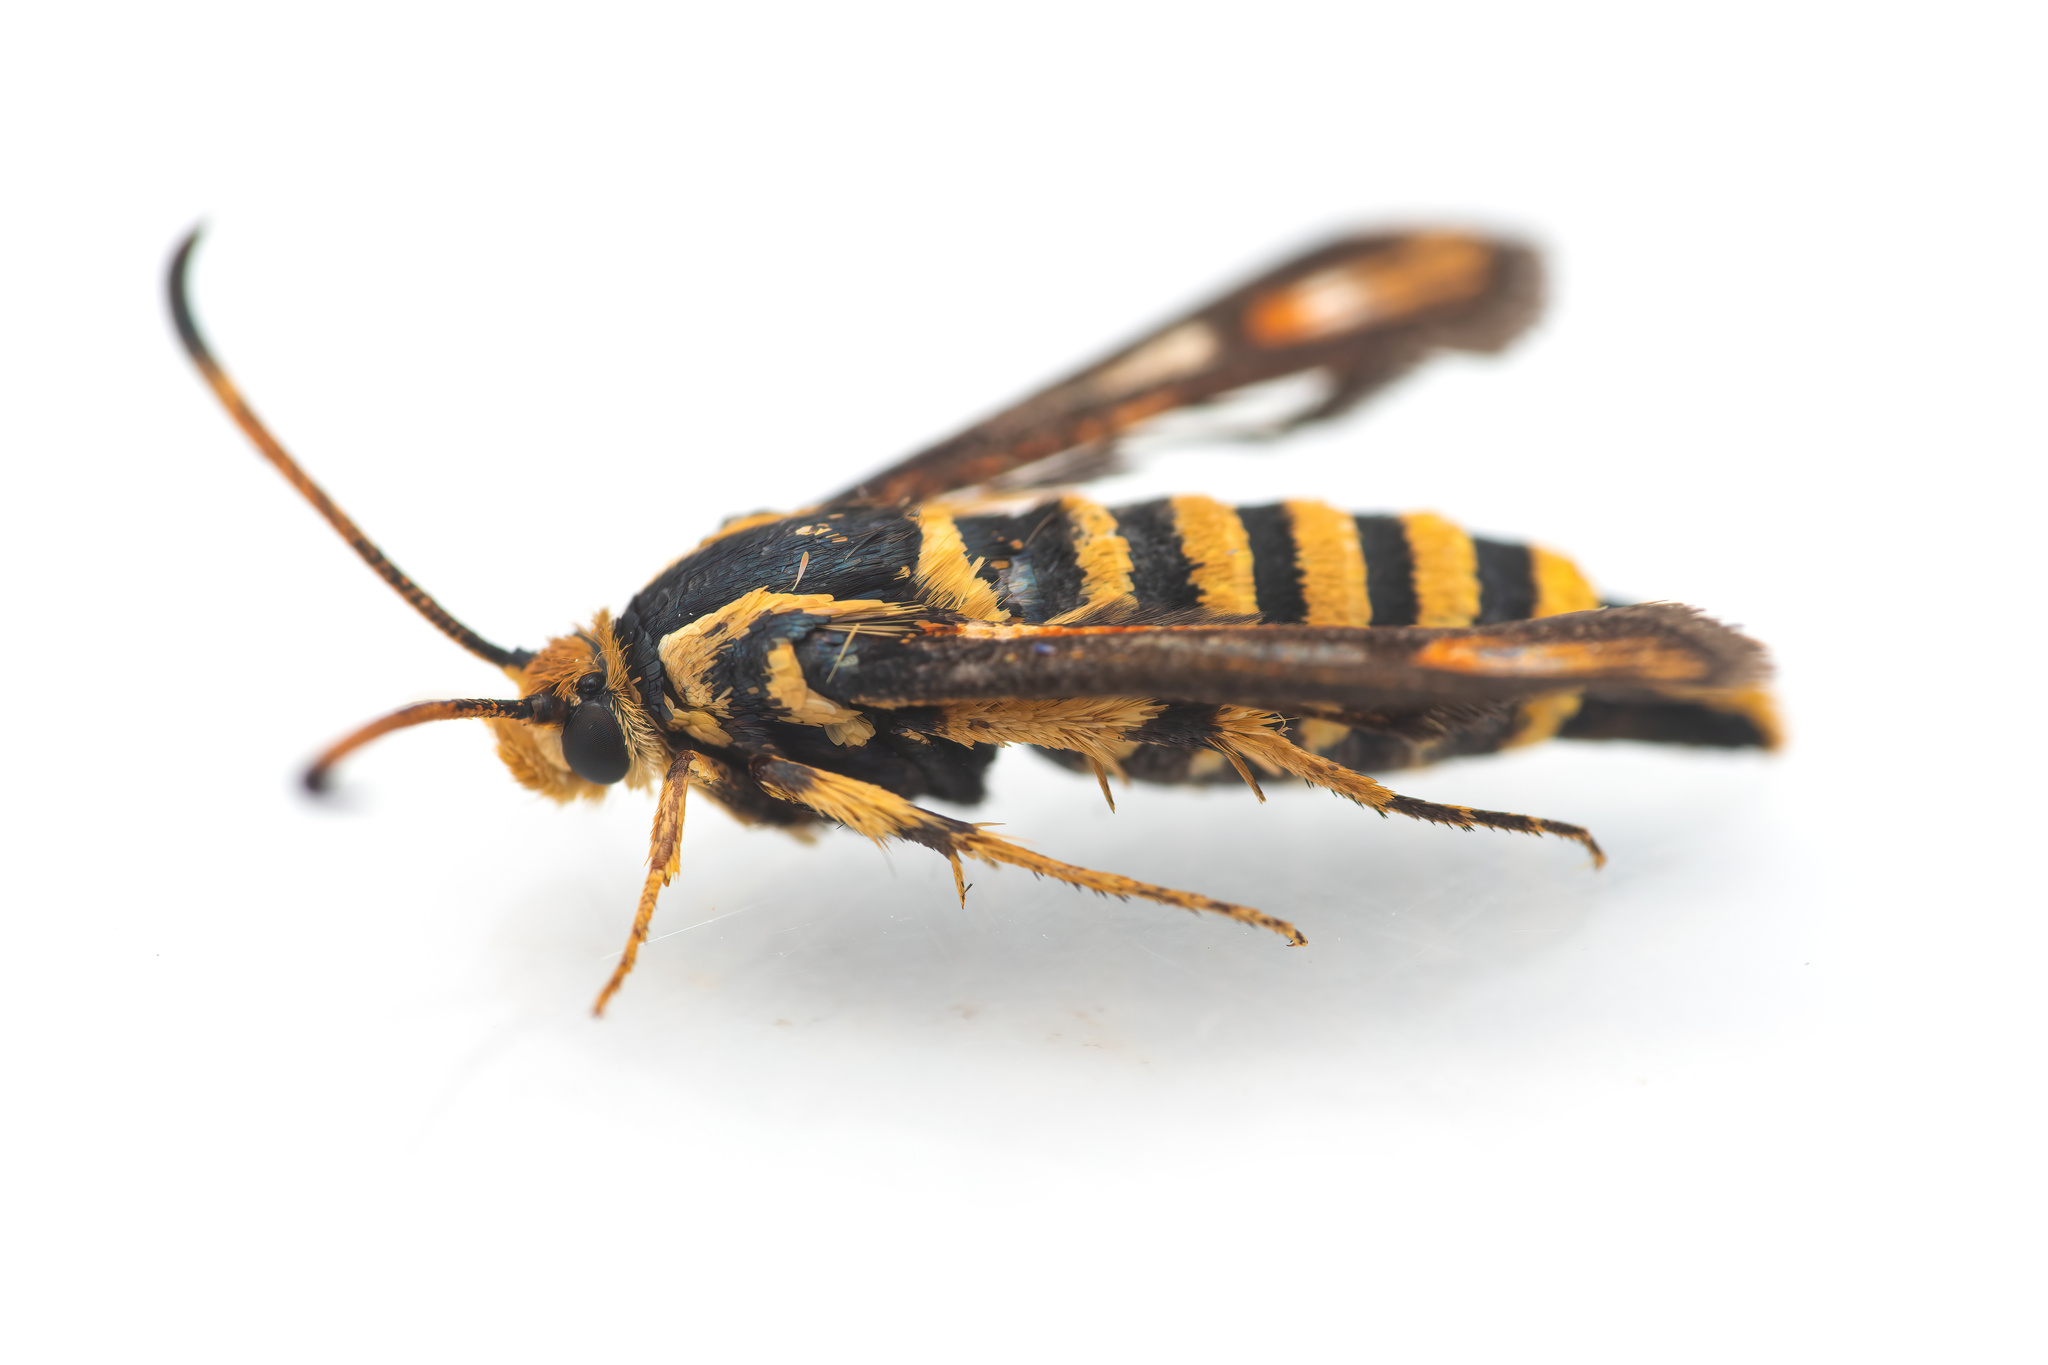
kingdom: Animalia
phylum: Arthropoda
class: Insecta
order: Lepidoptera
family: Sesiidae
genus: Bembecia
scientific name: Bembecia psoraleae
